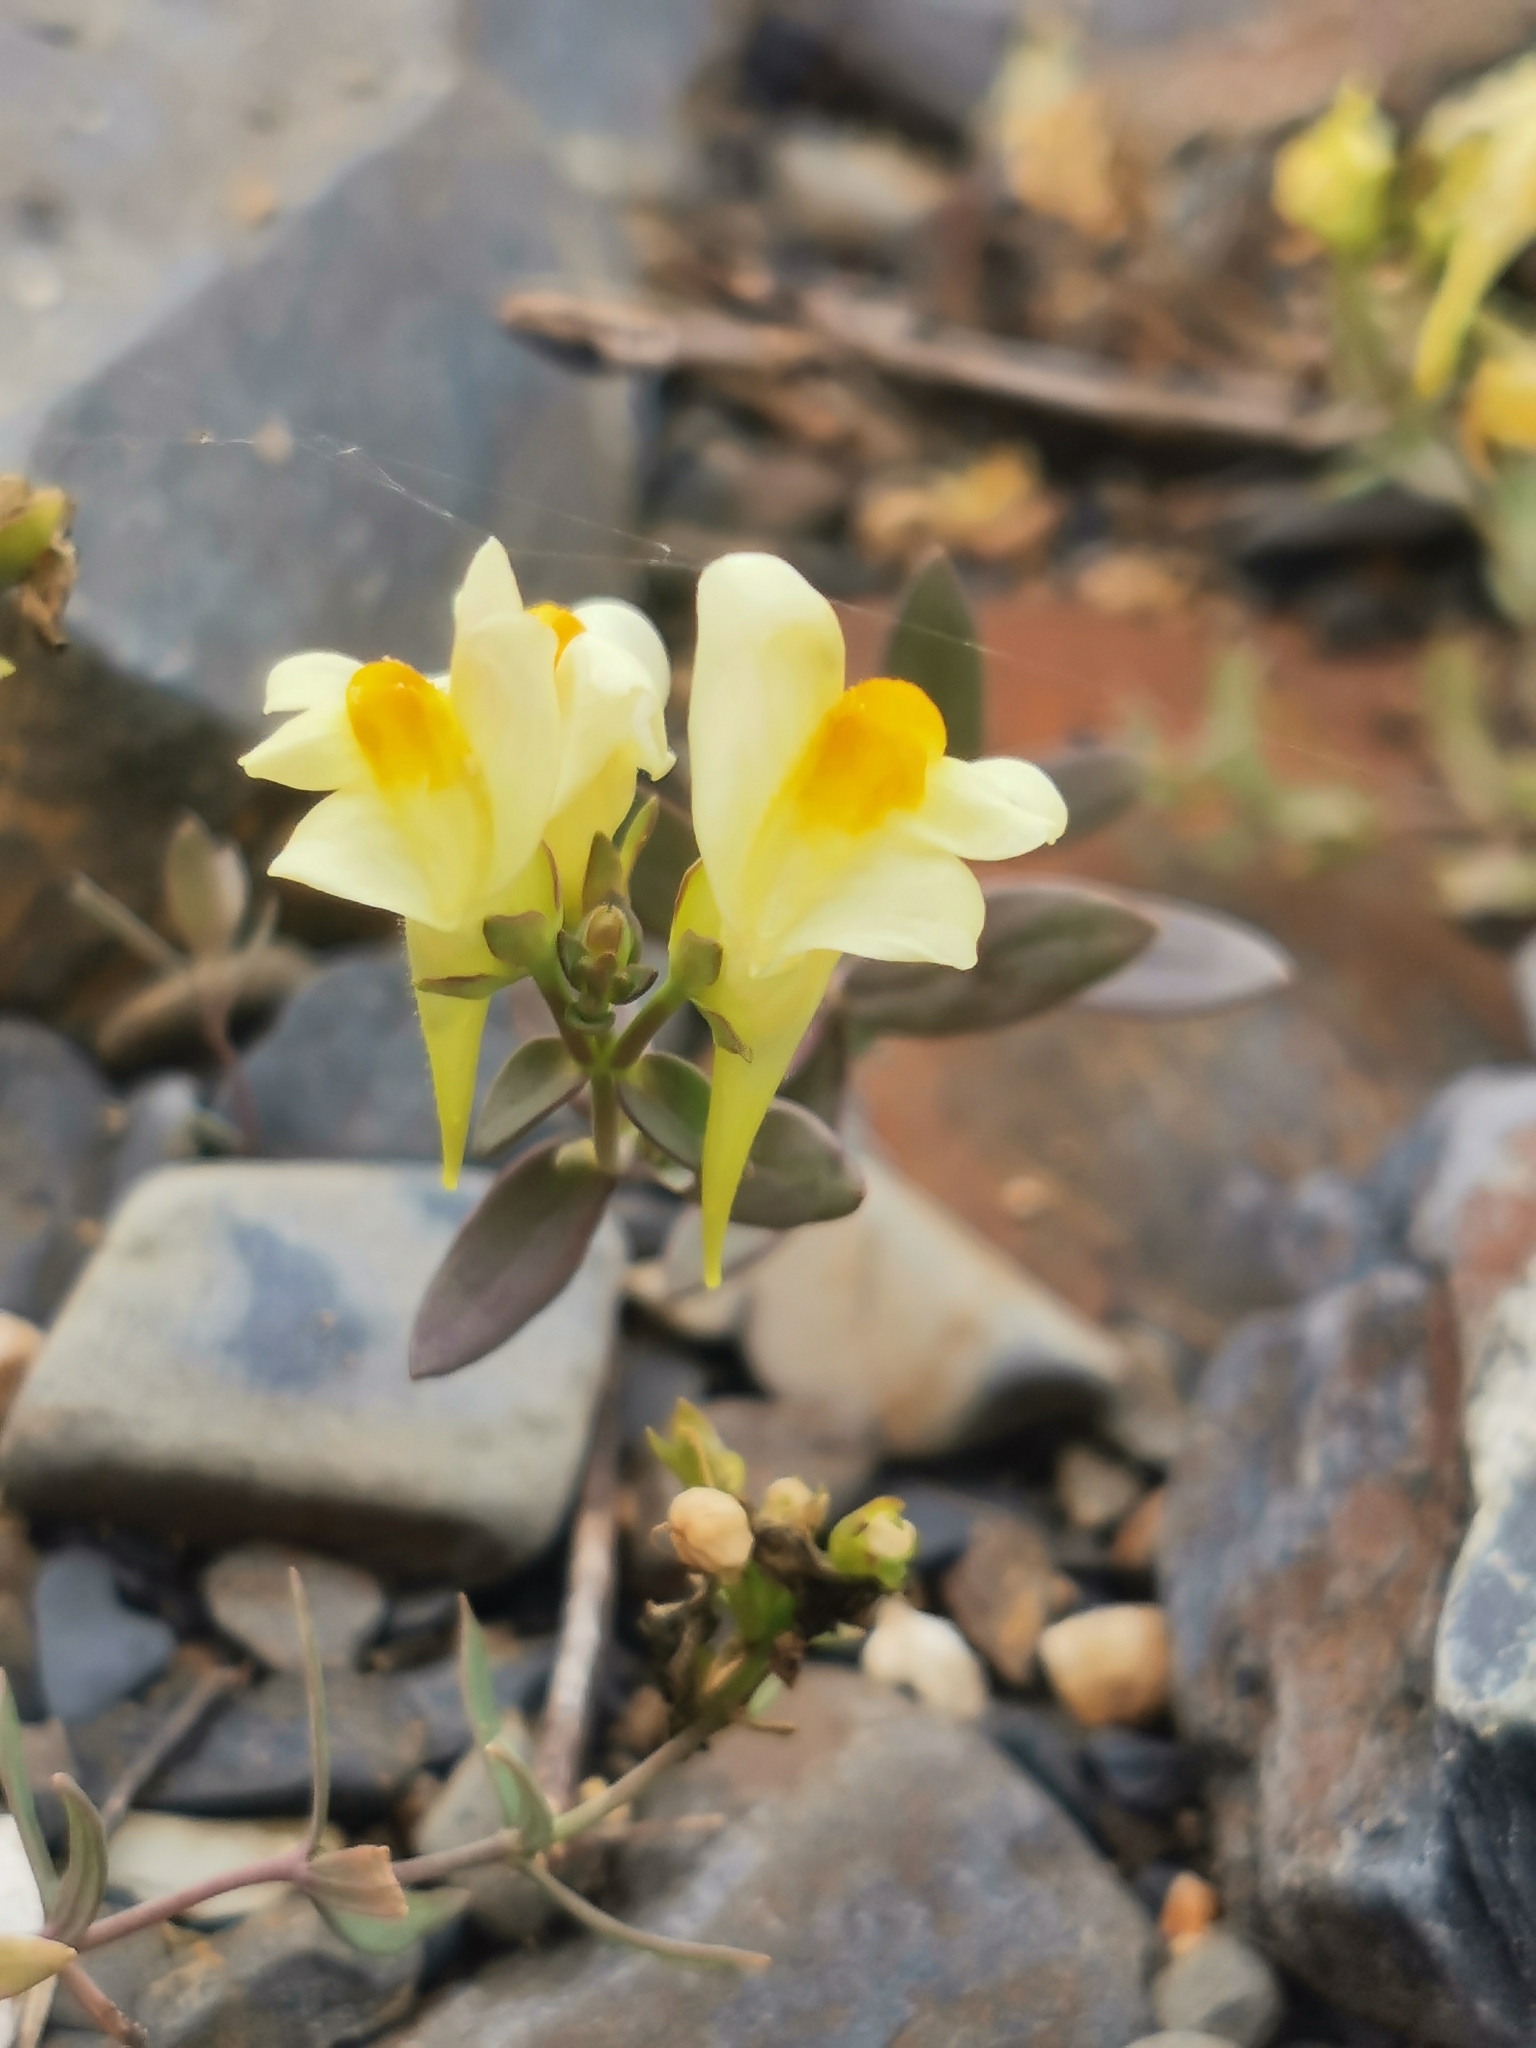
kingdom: Plantae
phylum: Tracheophyta
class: Magnoliopsida
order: Lamiales
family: Plantaginaceae
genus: Linaria
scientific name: Linaria japonica
